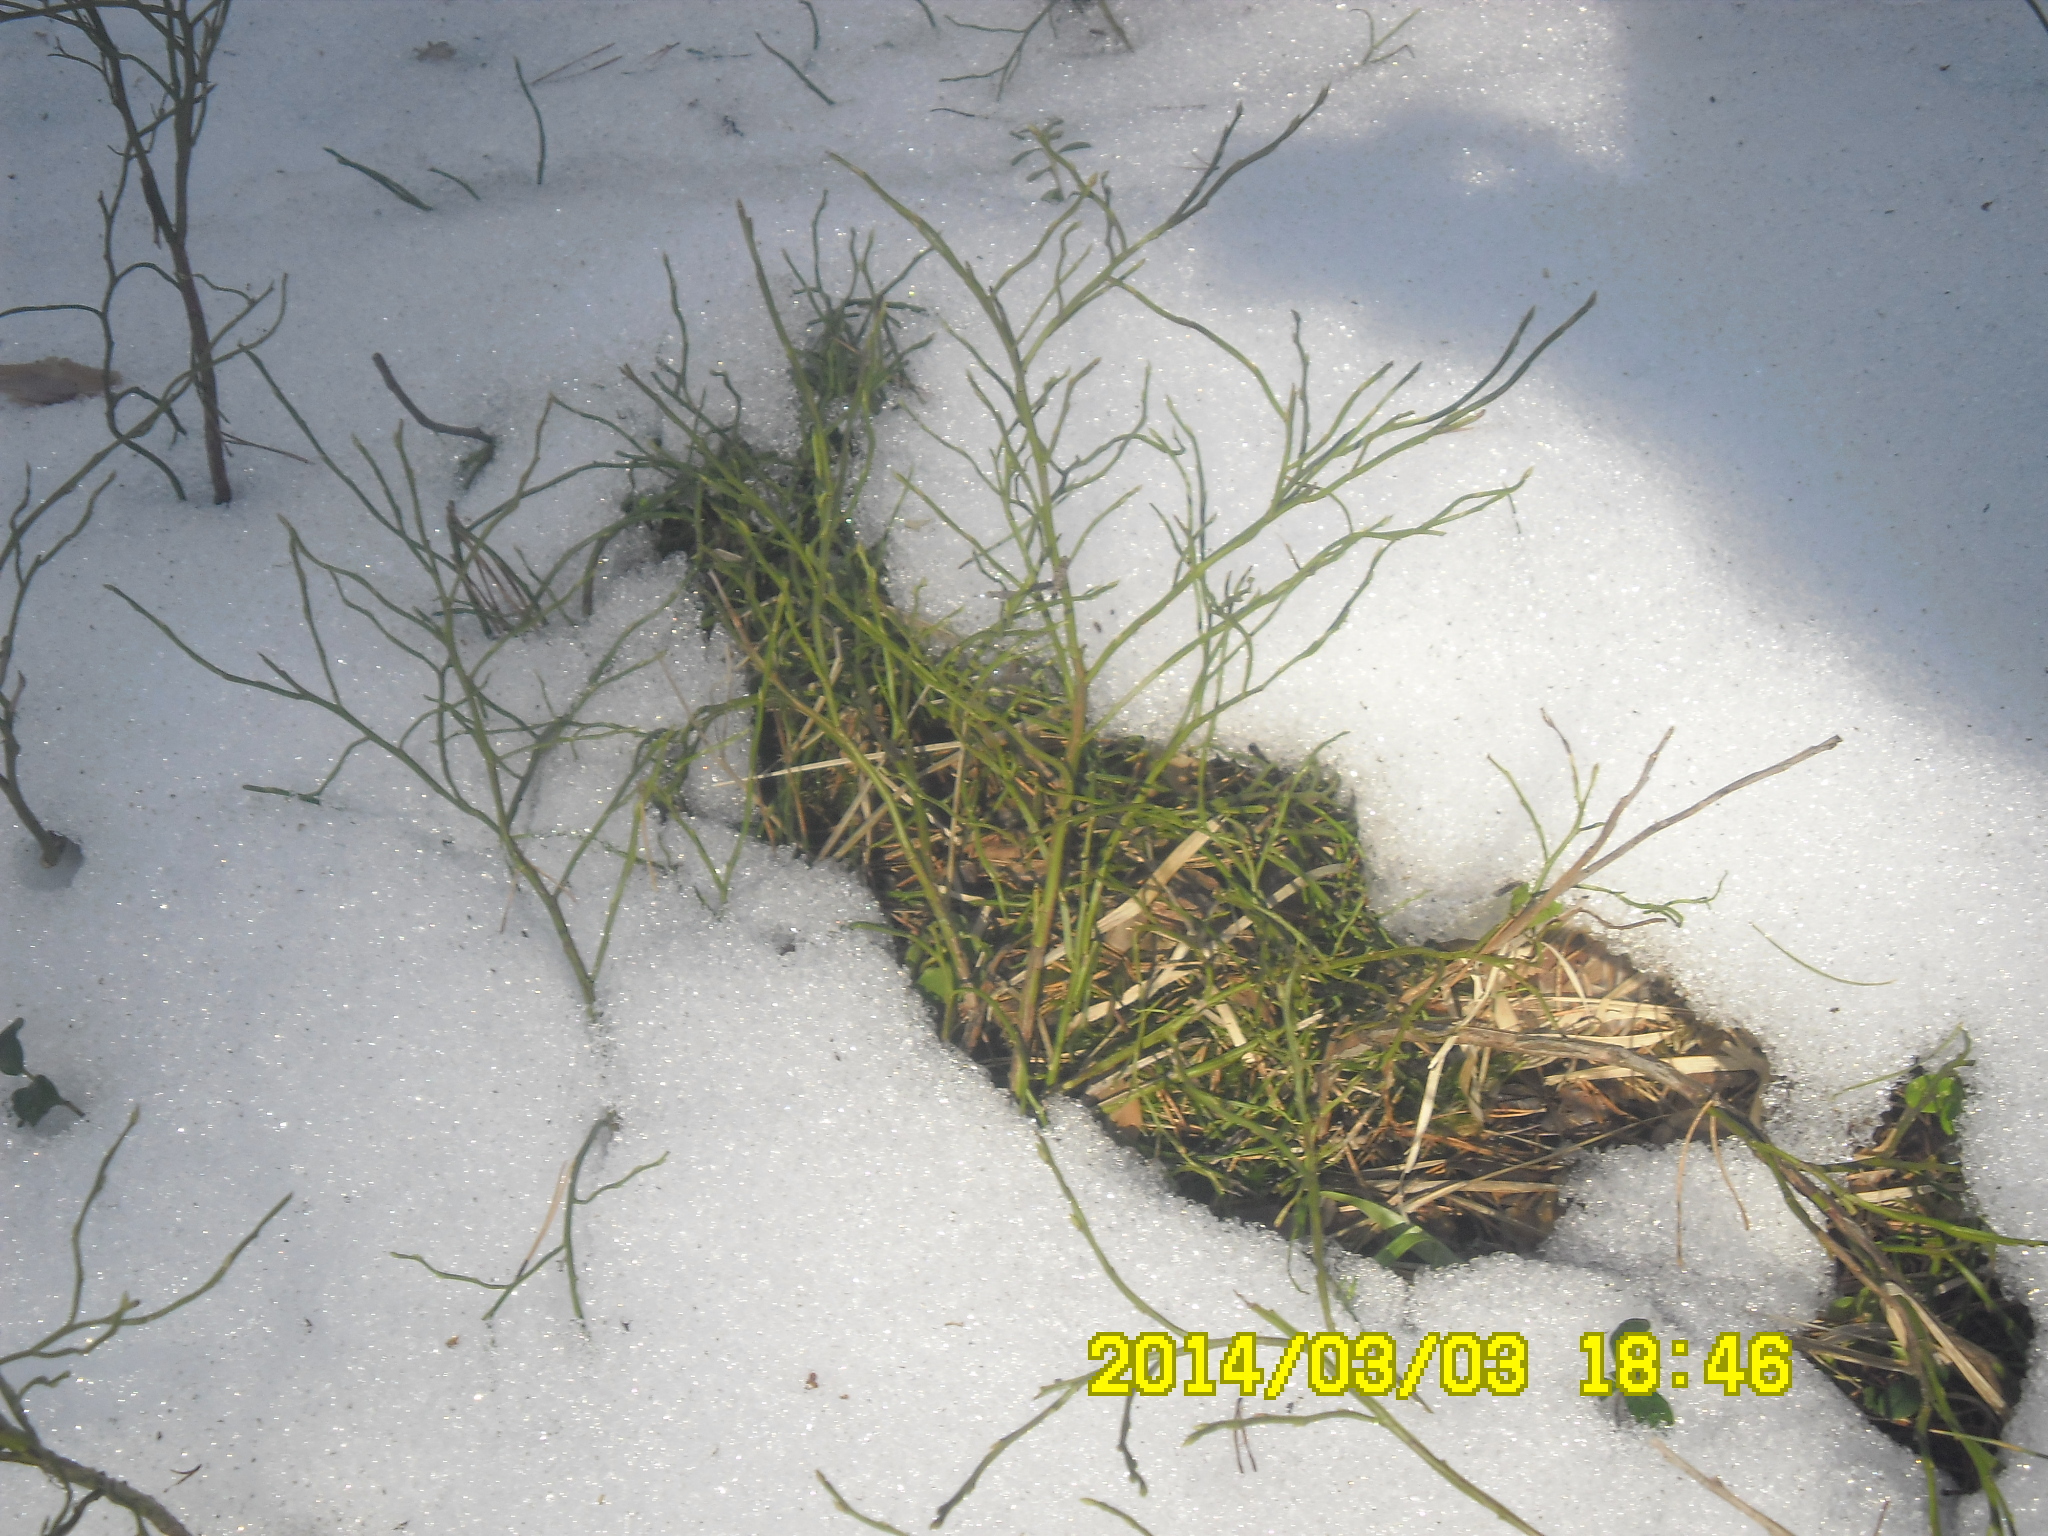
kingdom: Plantae
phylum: Tracheophyta
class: Magnoliopsida
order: Ericales
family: Ericaceae
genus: Vaccinium
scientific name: Vaccinium myrtillus
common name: Bilberry
